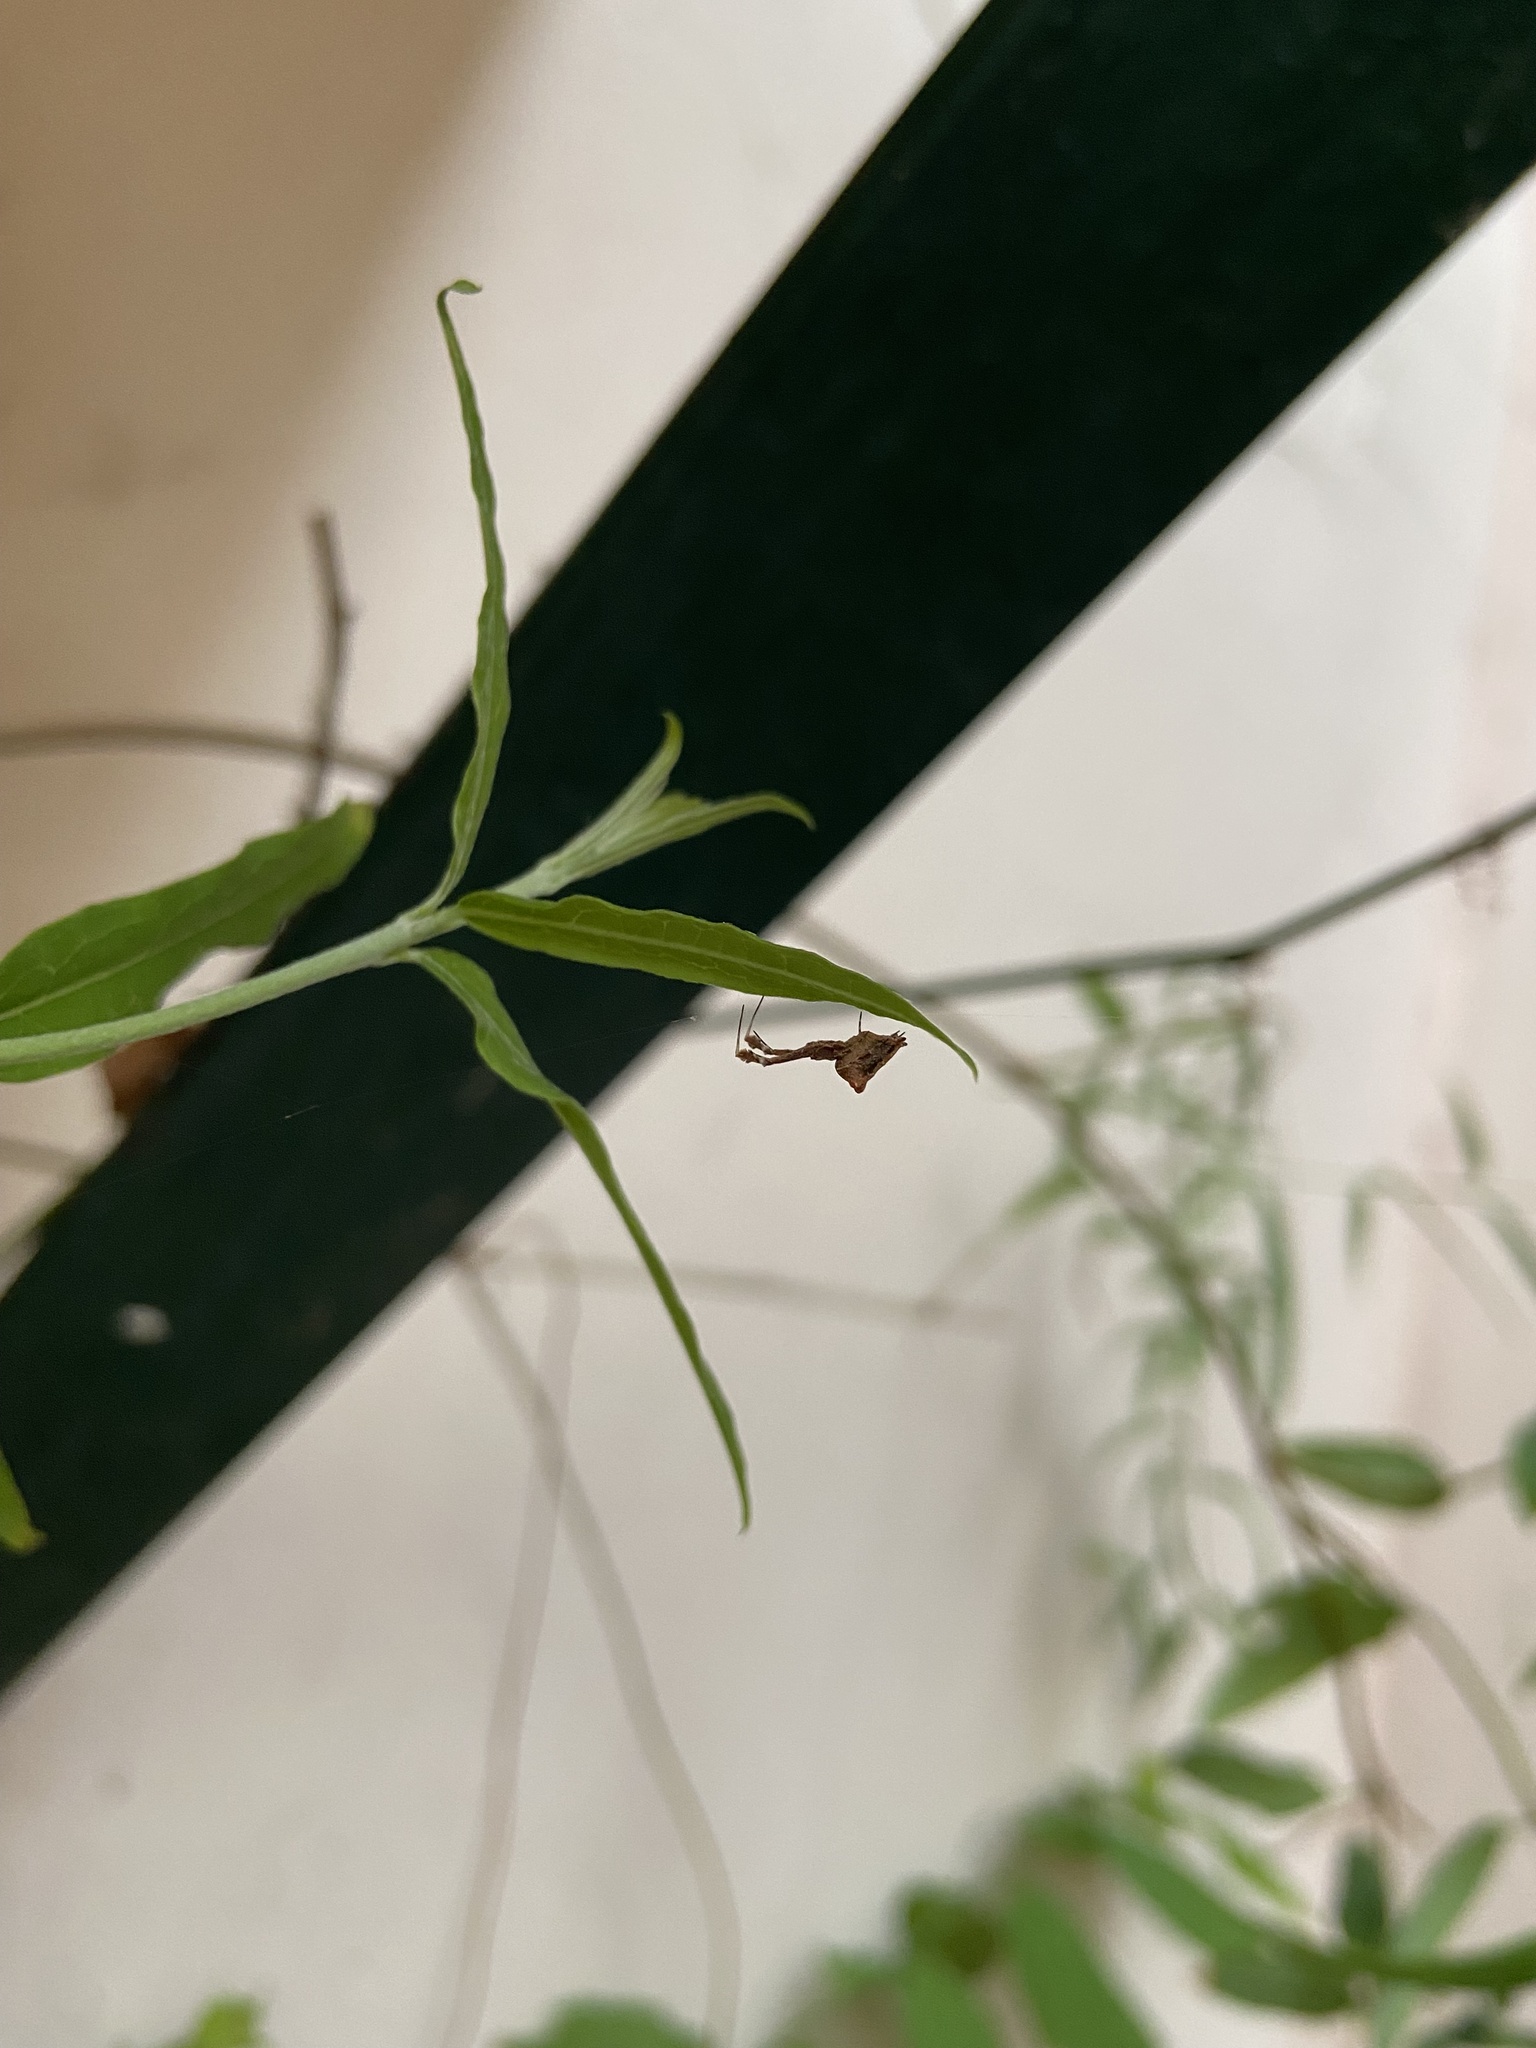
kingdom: Animalia
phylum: Arthropoda
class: Arachnida
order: Araneae
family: Uloboridae
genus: Uloborus
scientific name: Uloborus plumipes
